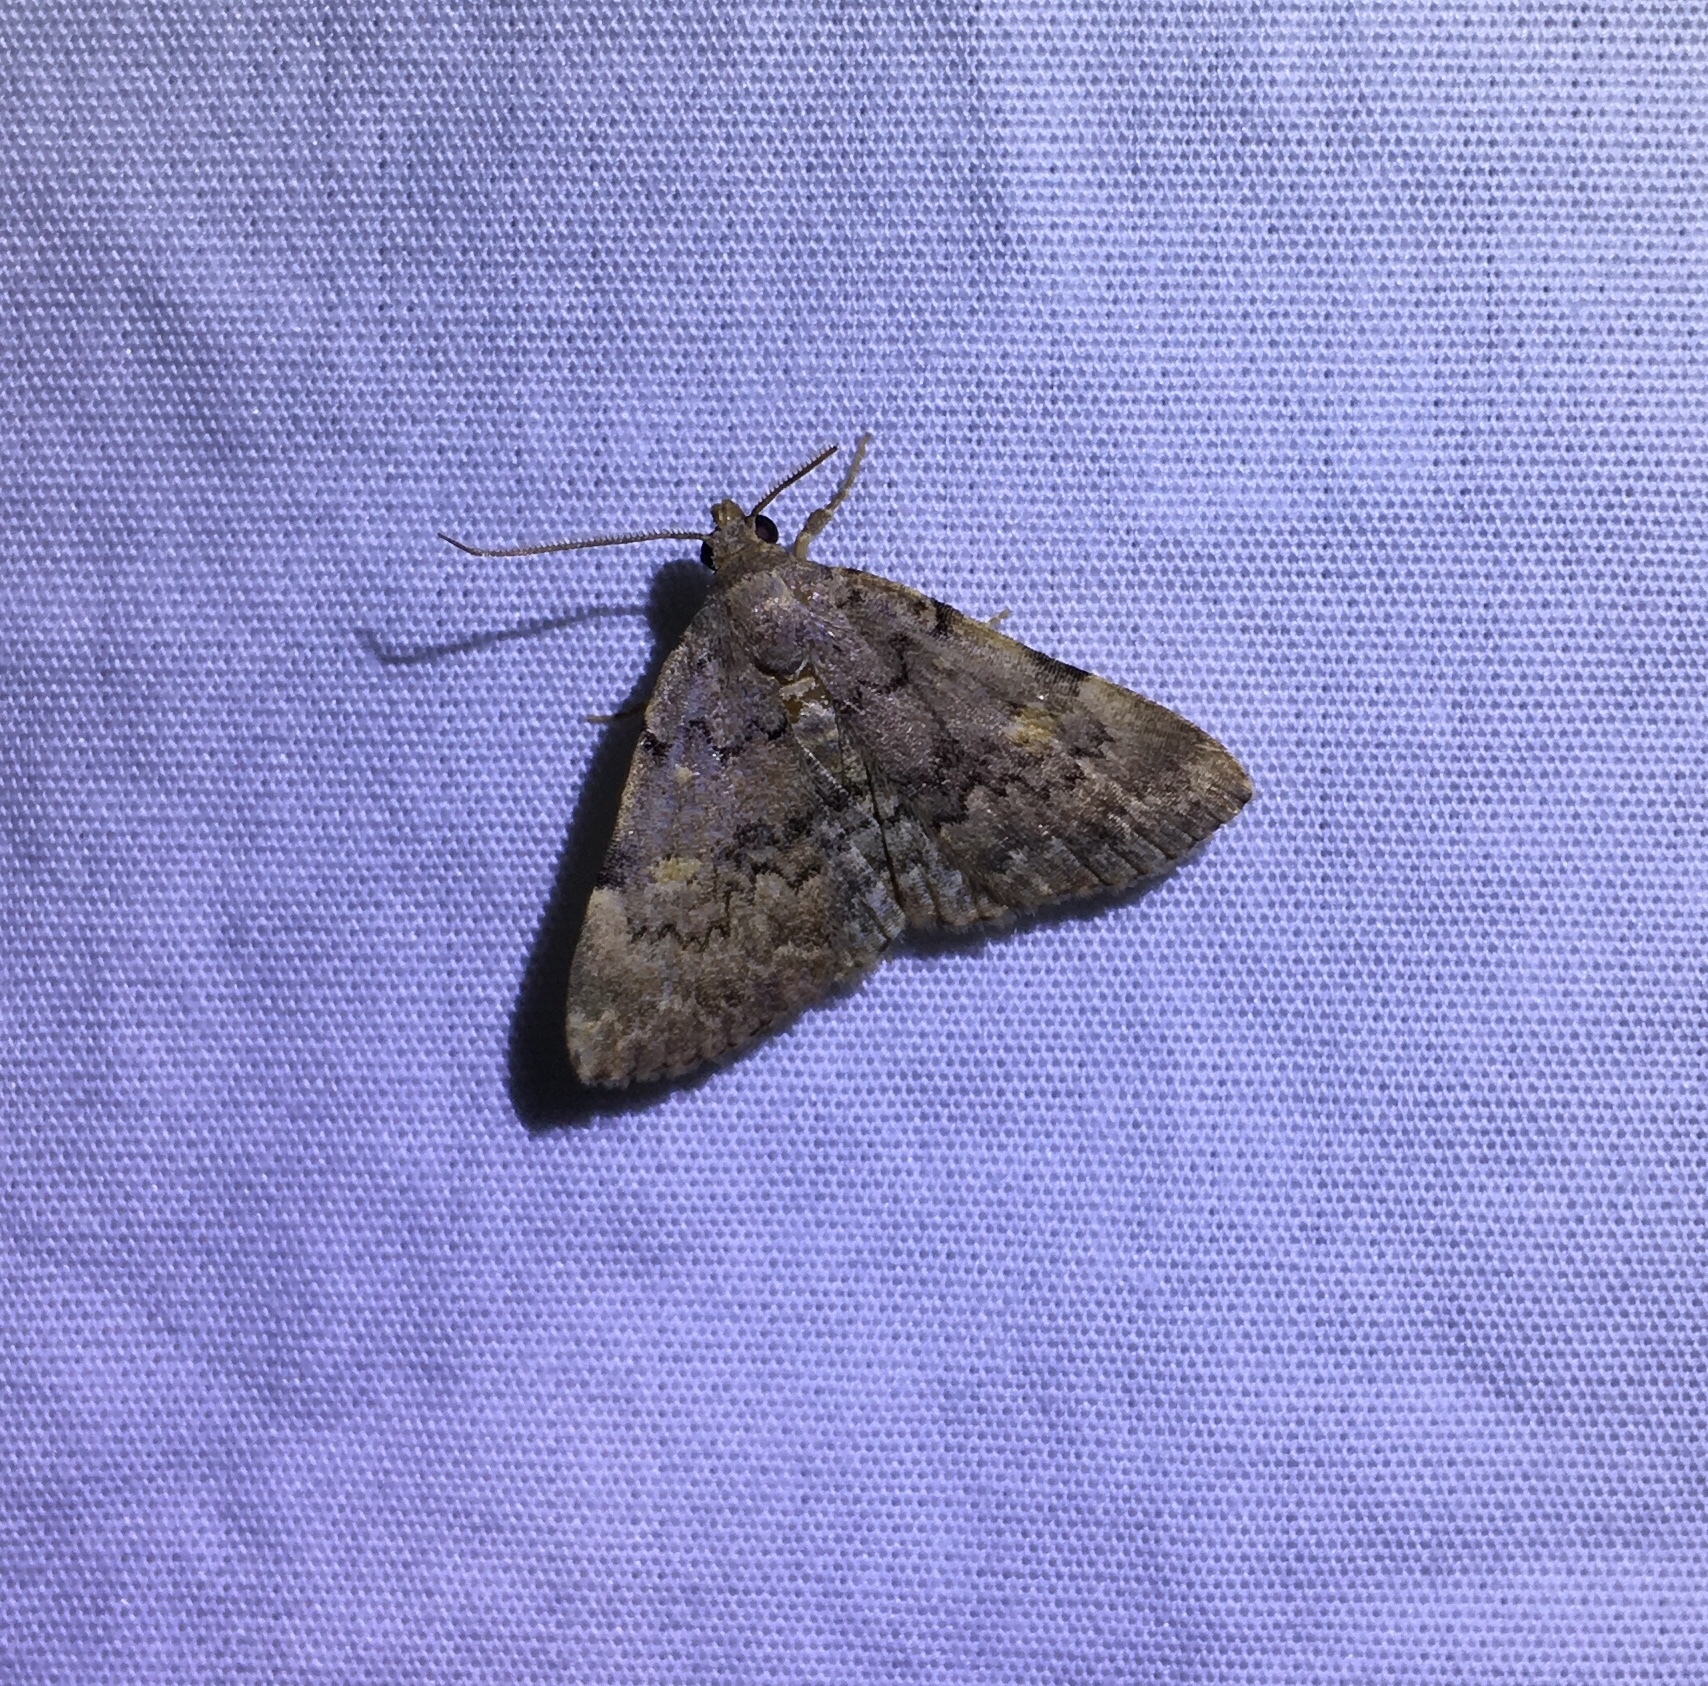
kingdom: Animalia
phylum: Arthropoda
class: Insecta
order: Lepidoptera
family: Erebidae
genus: Idia
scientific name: Idia aemula
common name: Common idia moth
